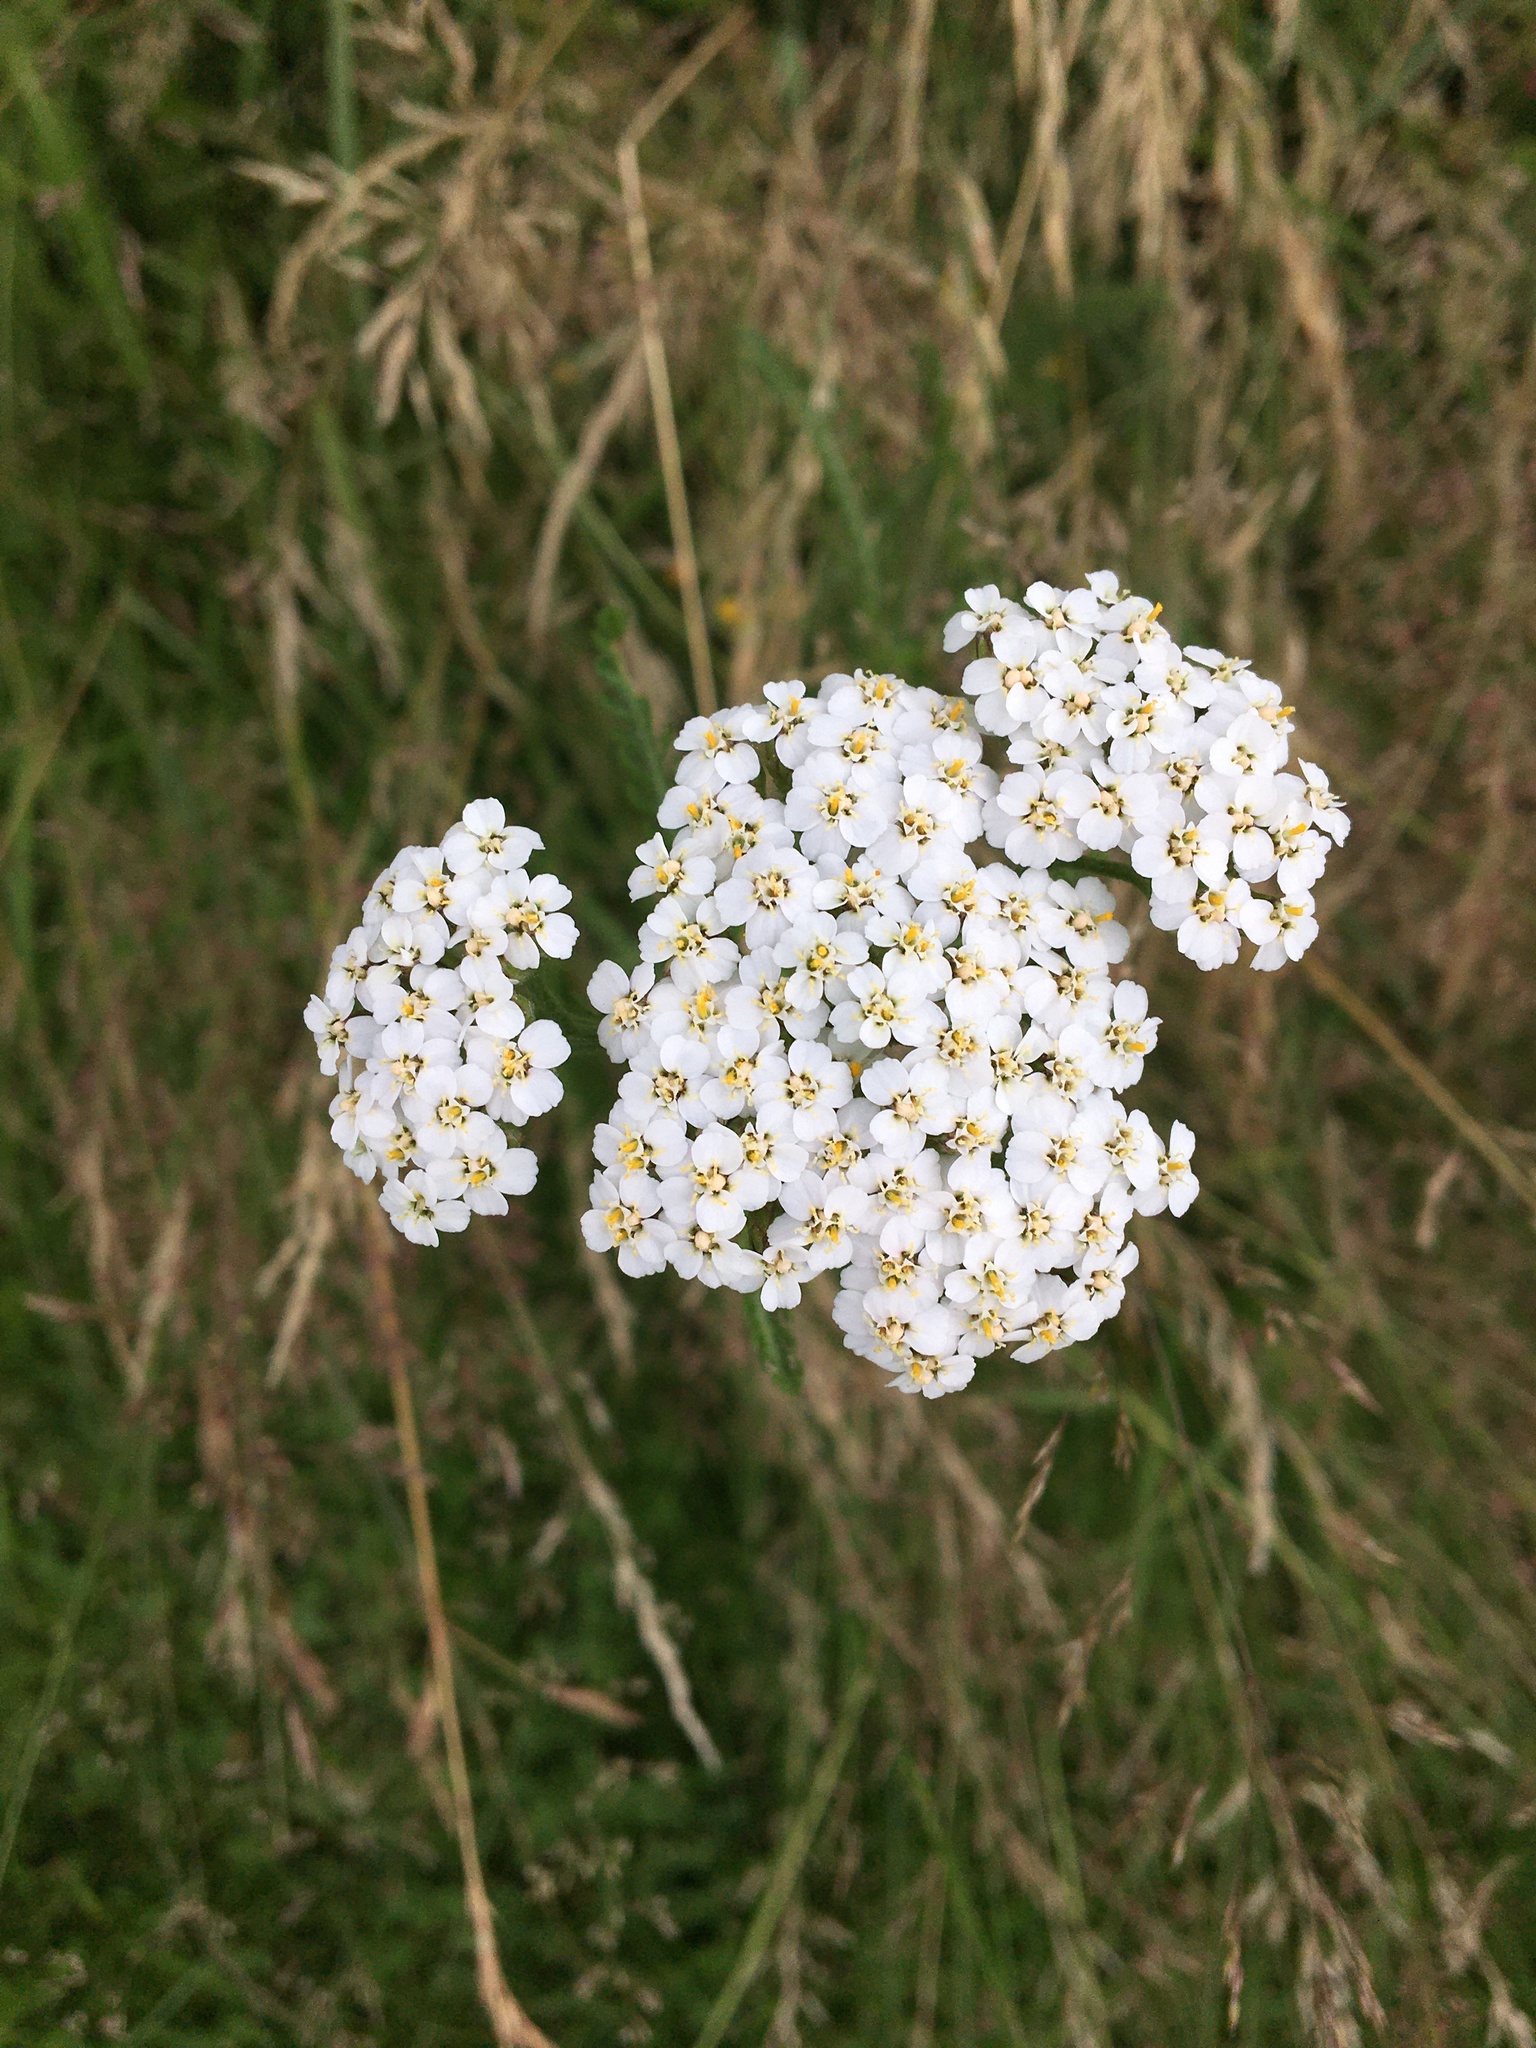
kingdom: Plantae
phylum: Tracheophyta
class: Magnoliopsida
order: Asterales
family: Asteraceae
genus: Achillea
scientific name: Achillea millefolium
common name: Yarrow
